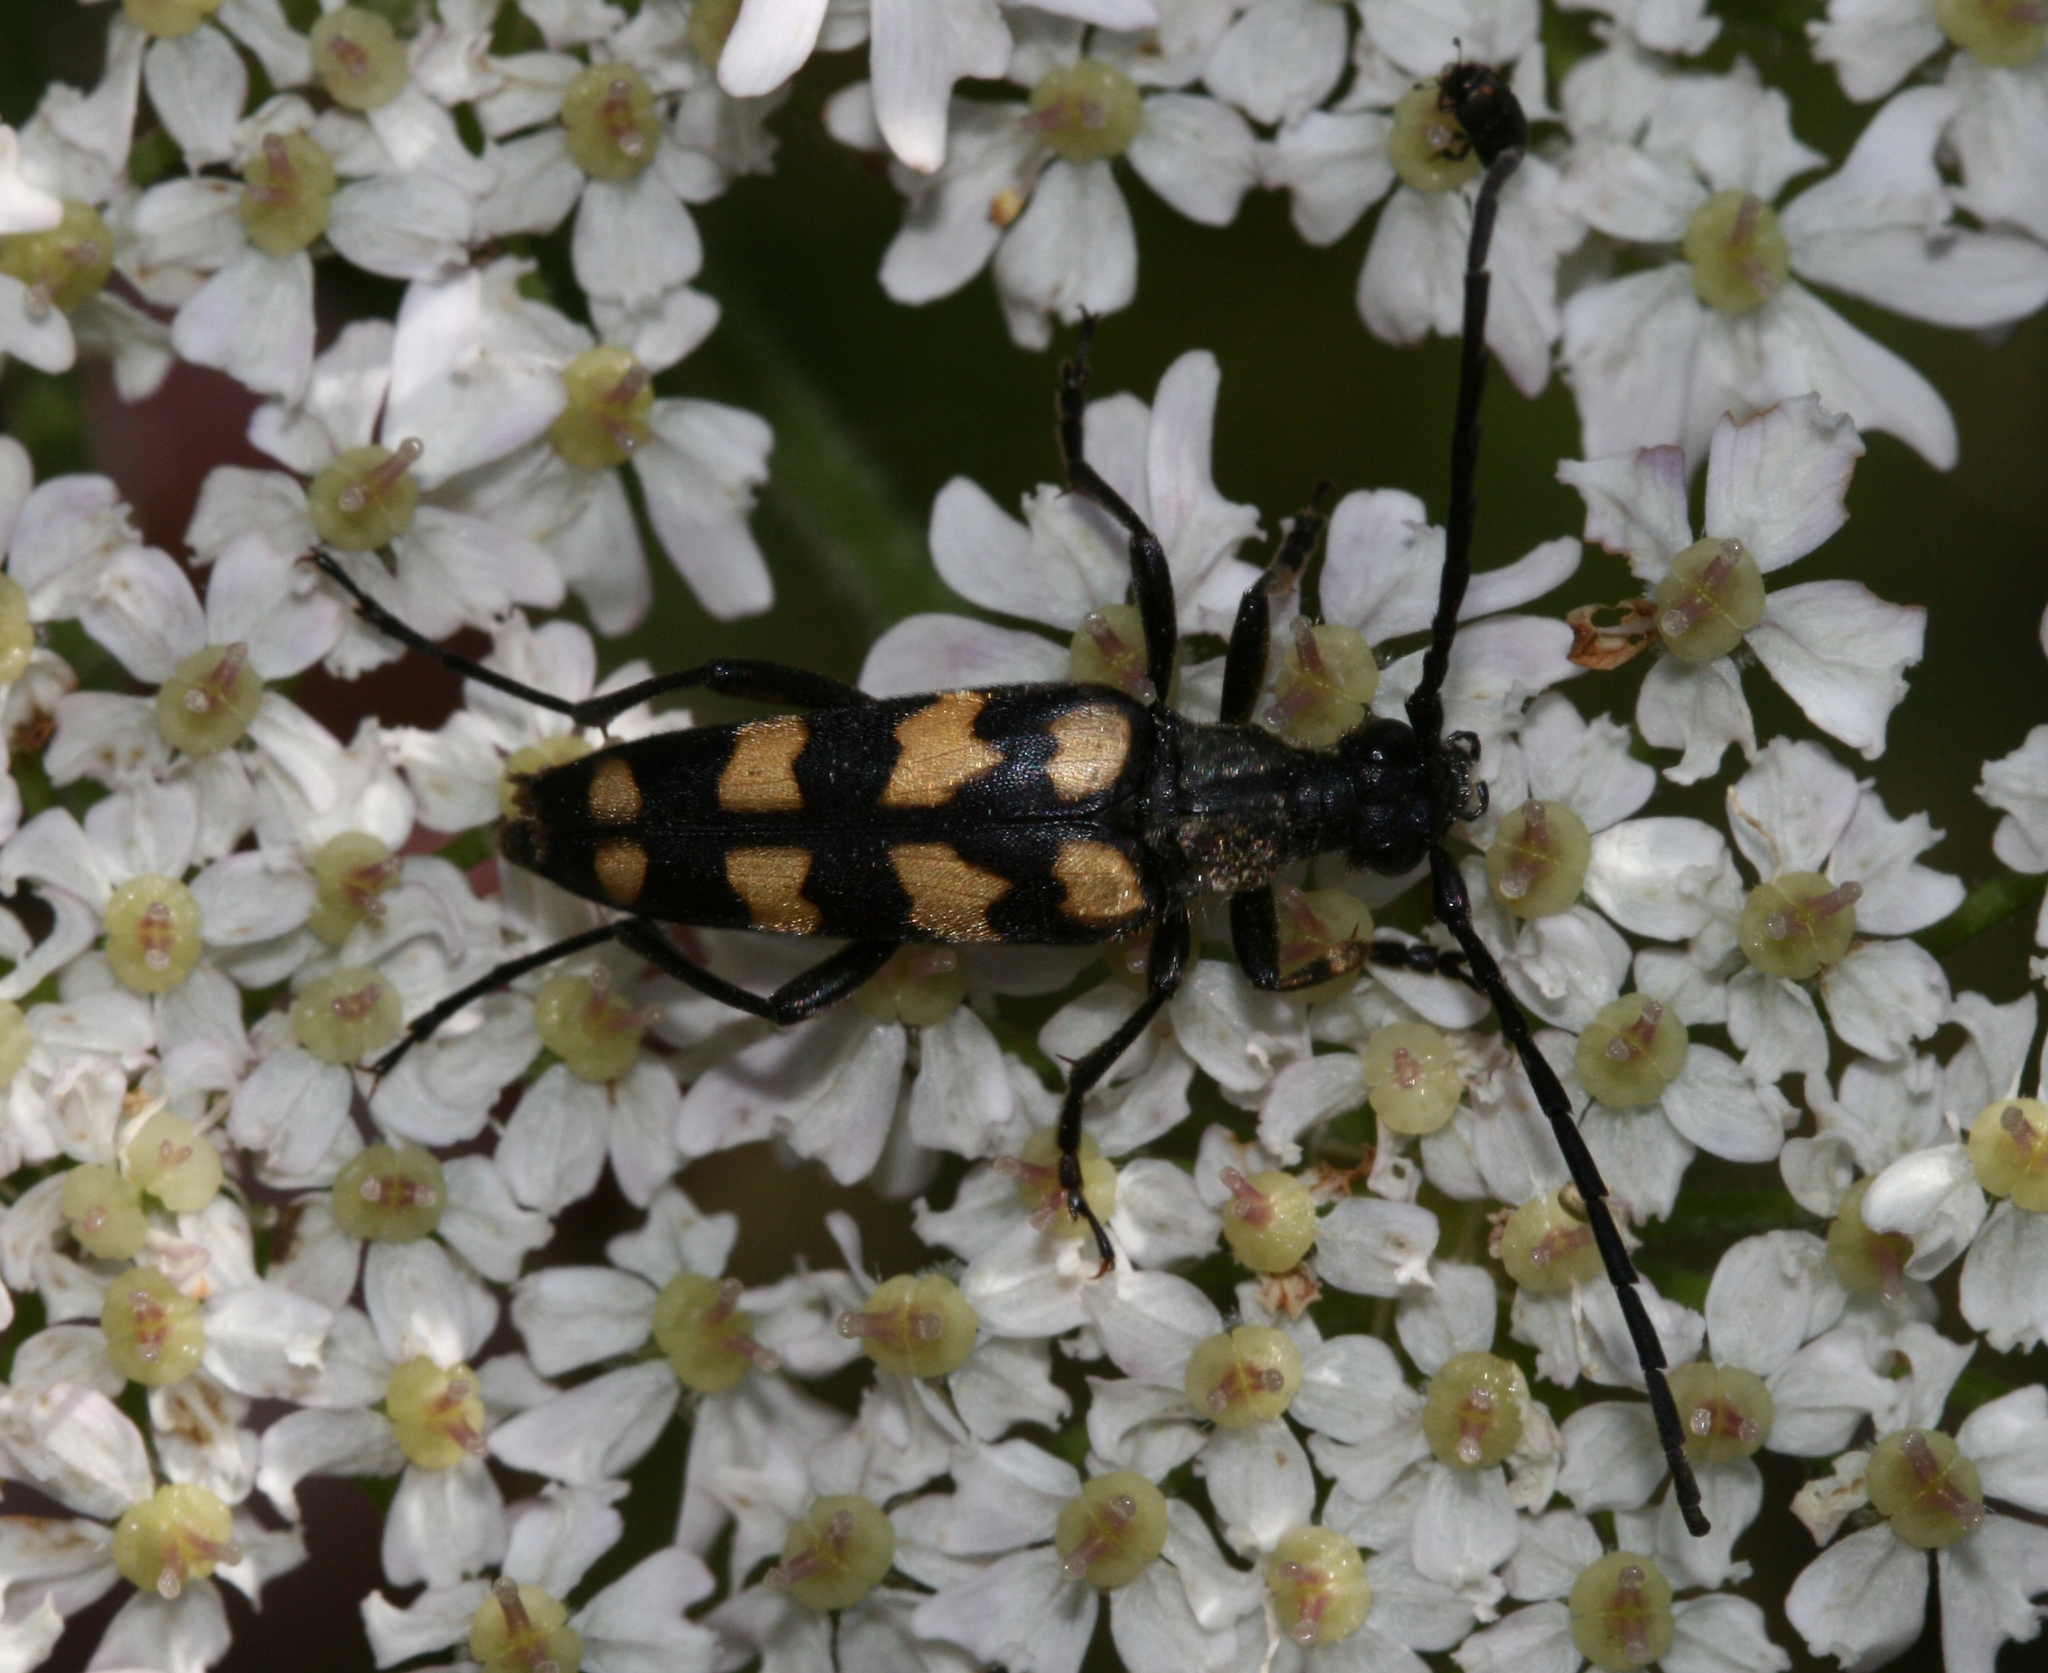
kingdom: Animalia
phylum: Arthropoda
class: Insecta
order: Coleoptera
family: Cerambycidae
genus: Leptura
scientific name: Leptura quadrifasciata
